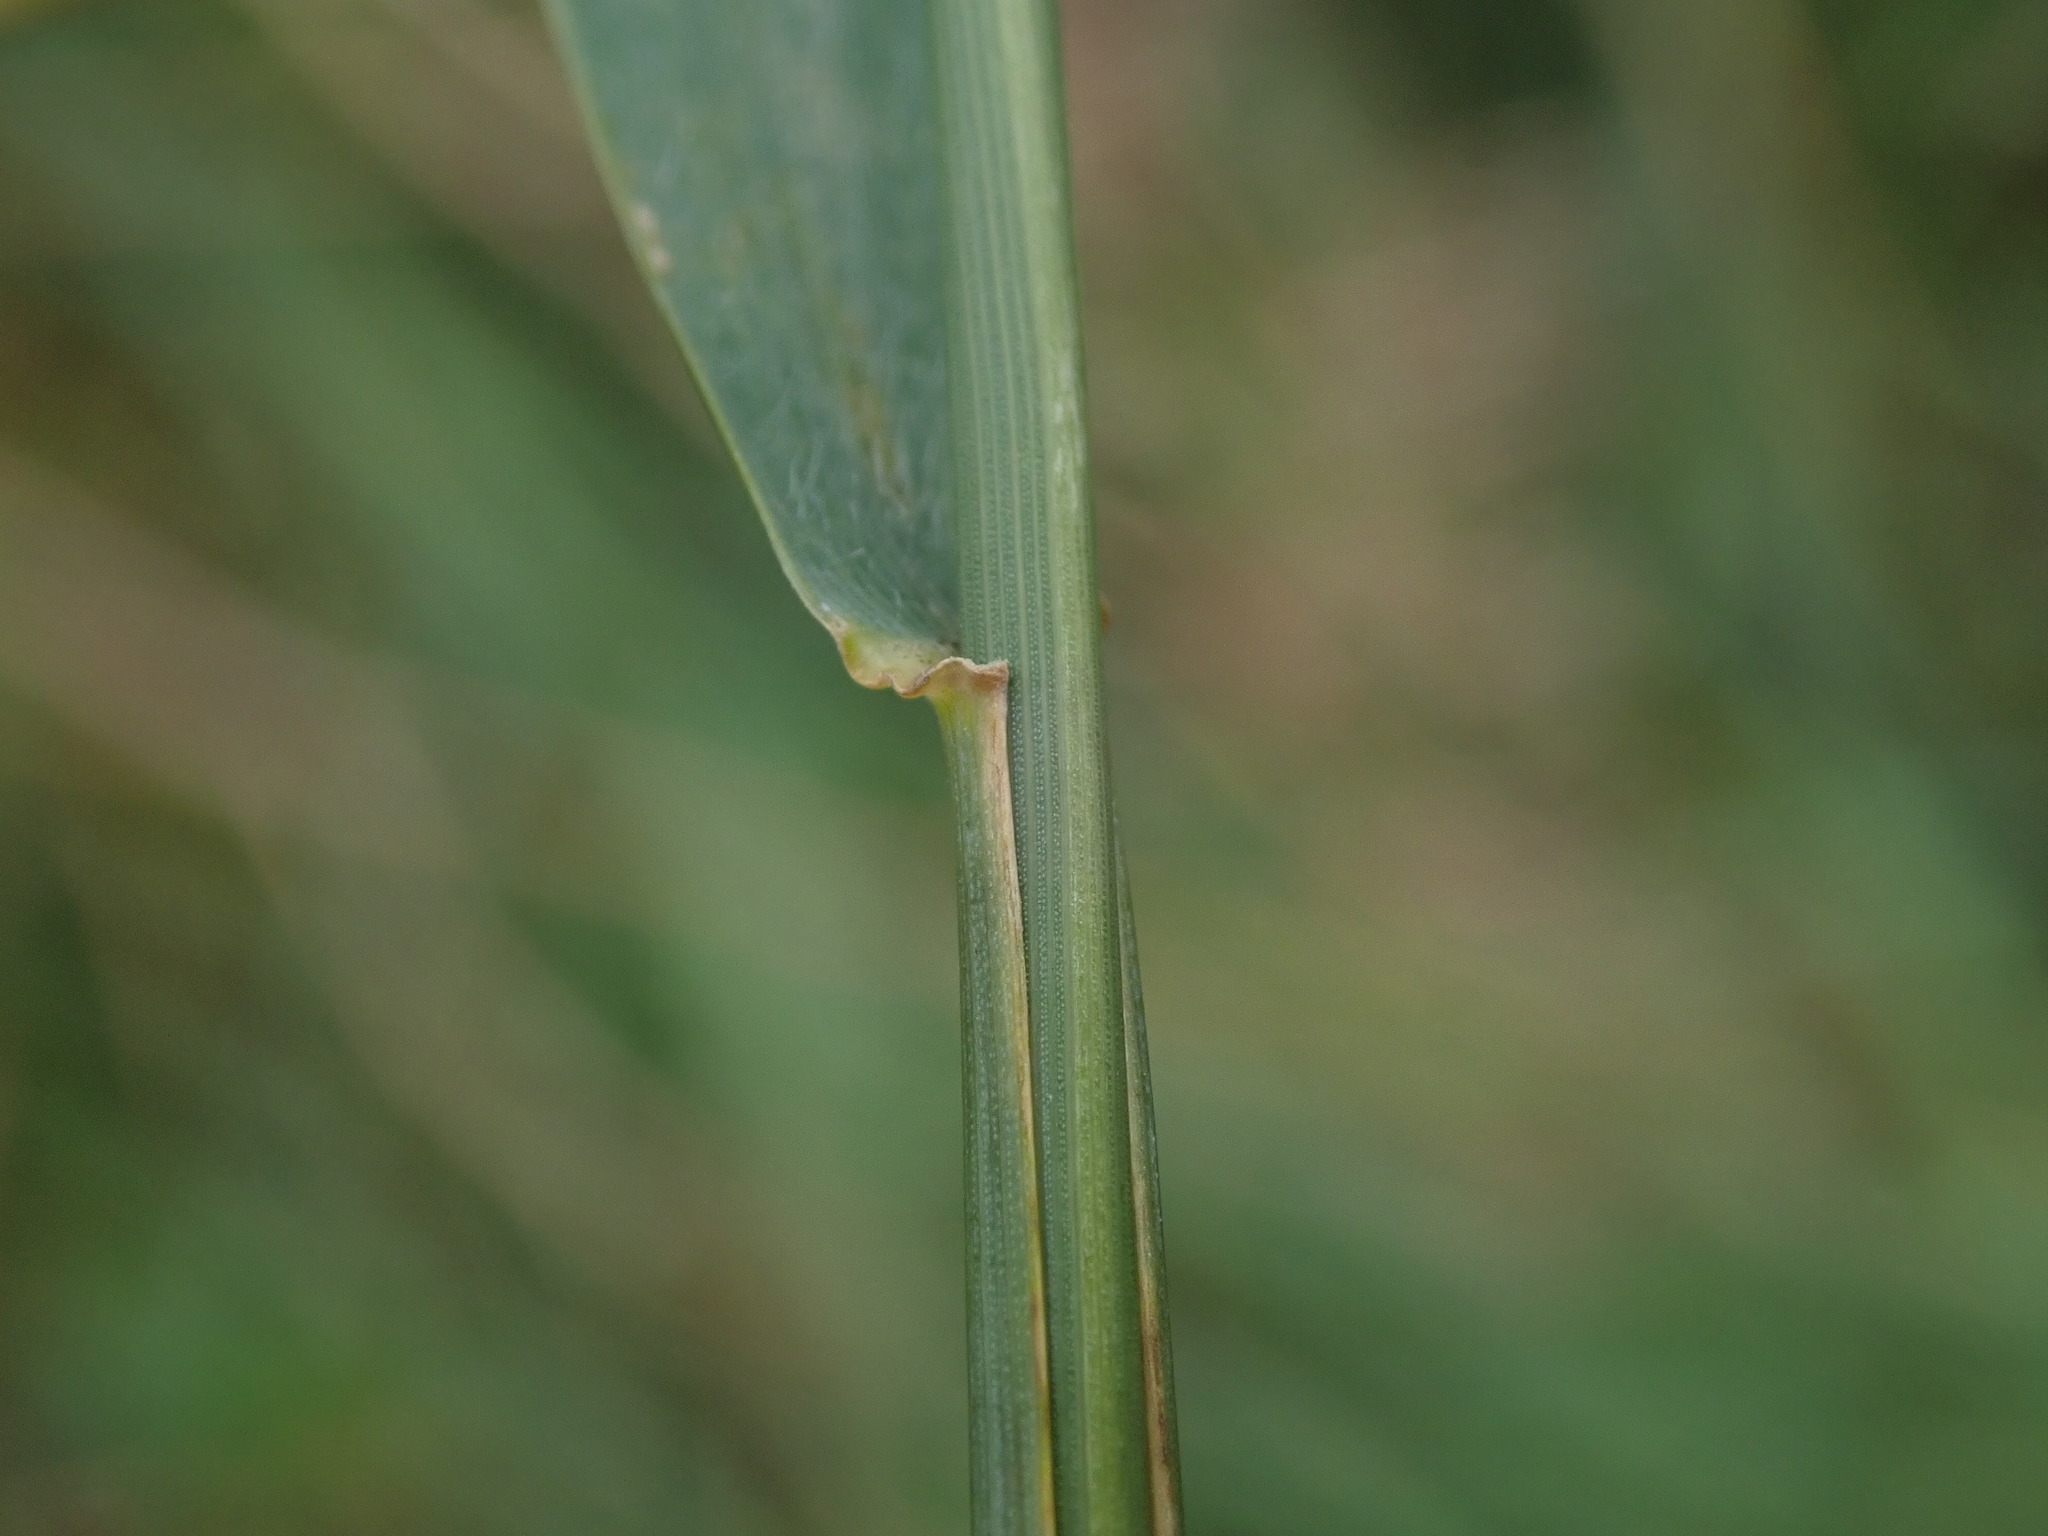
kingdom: Plantae
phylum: Tracheophyta
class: Liliopsida
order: Poales
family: Poaceae
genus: Elymus
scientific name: Elymus repens
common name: Quackgrass
